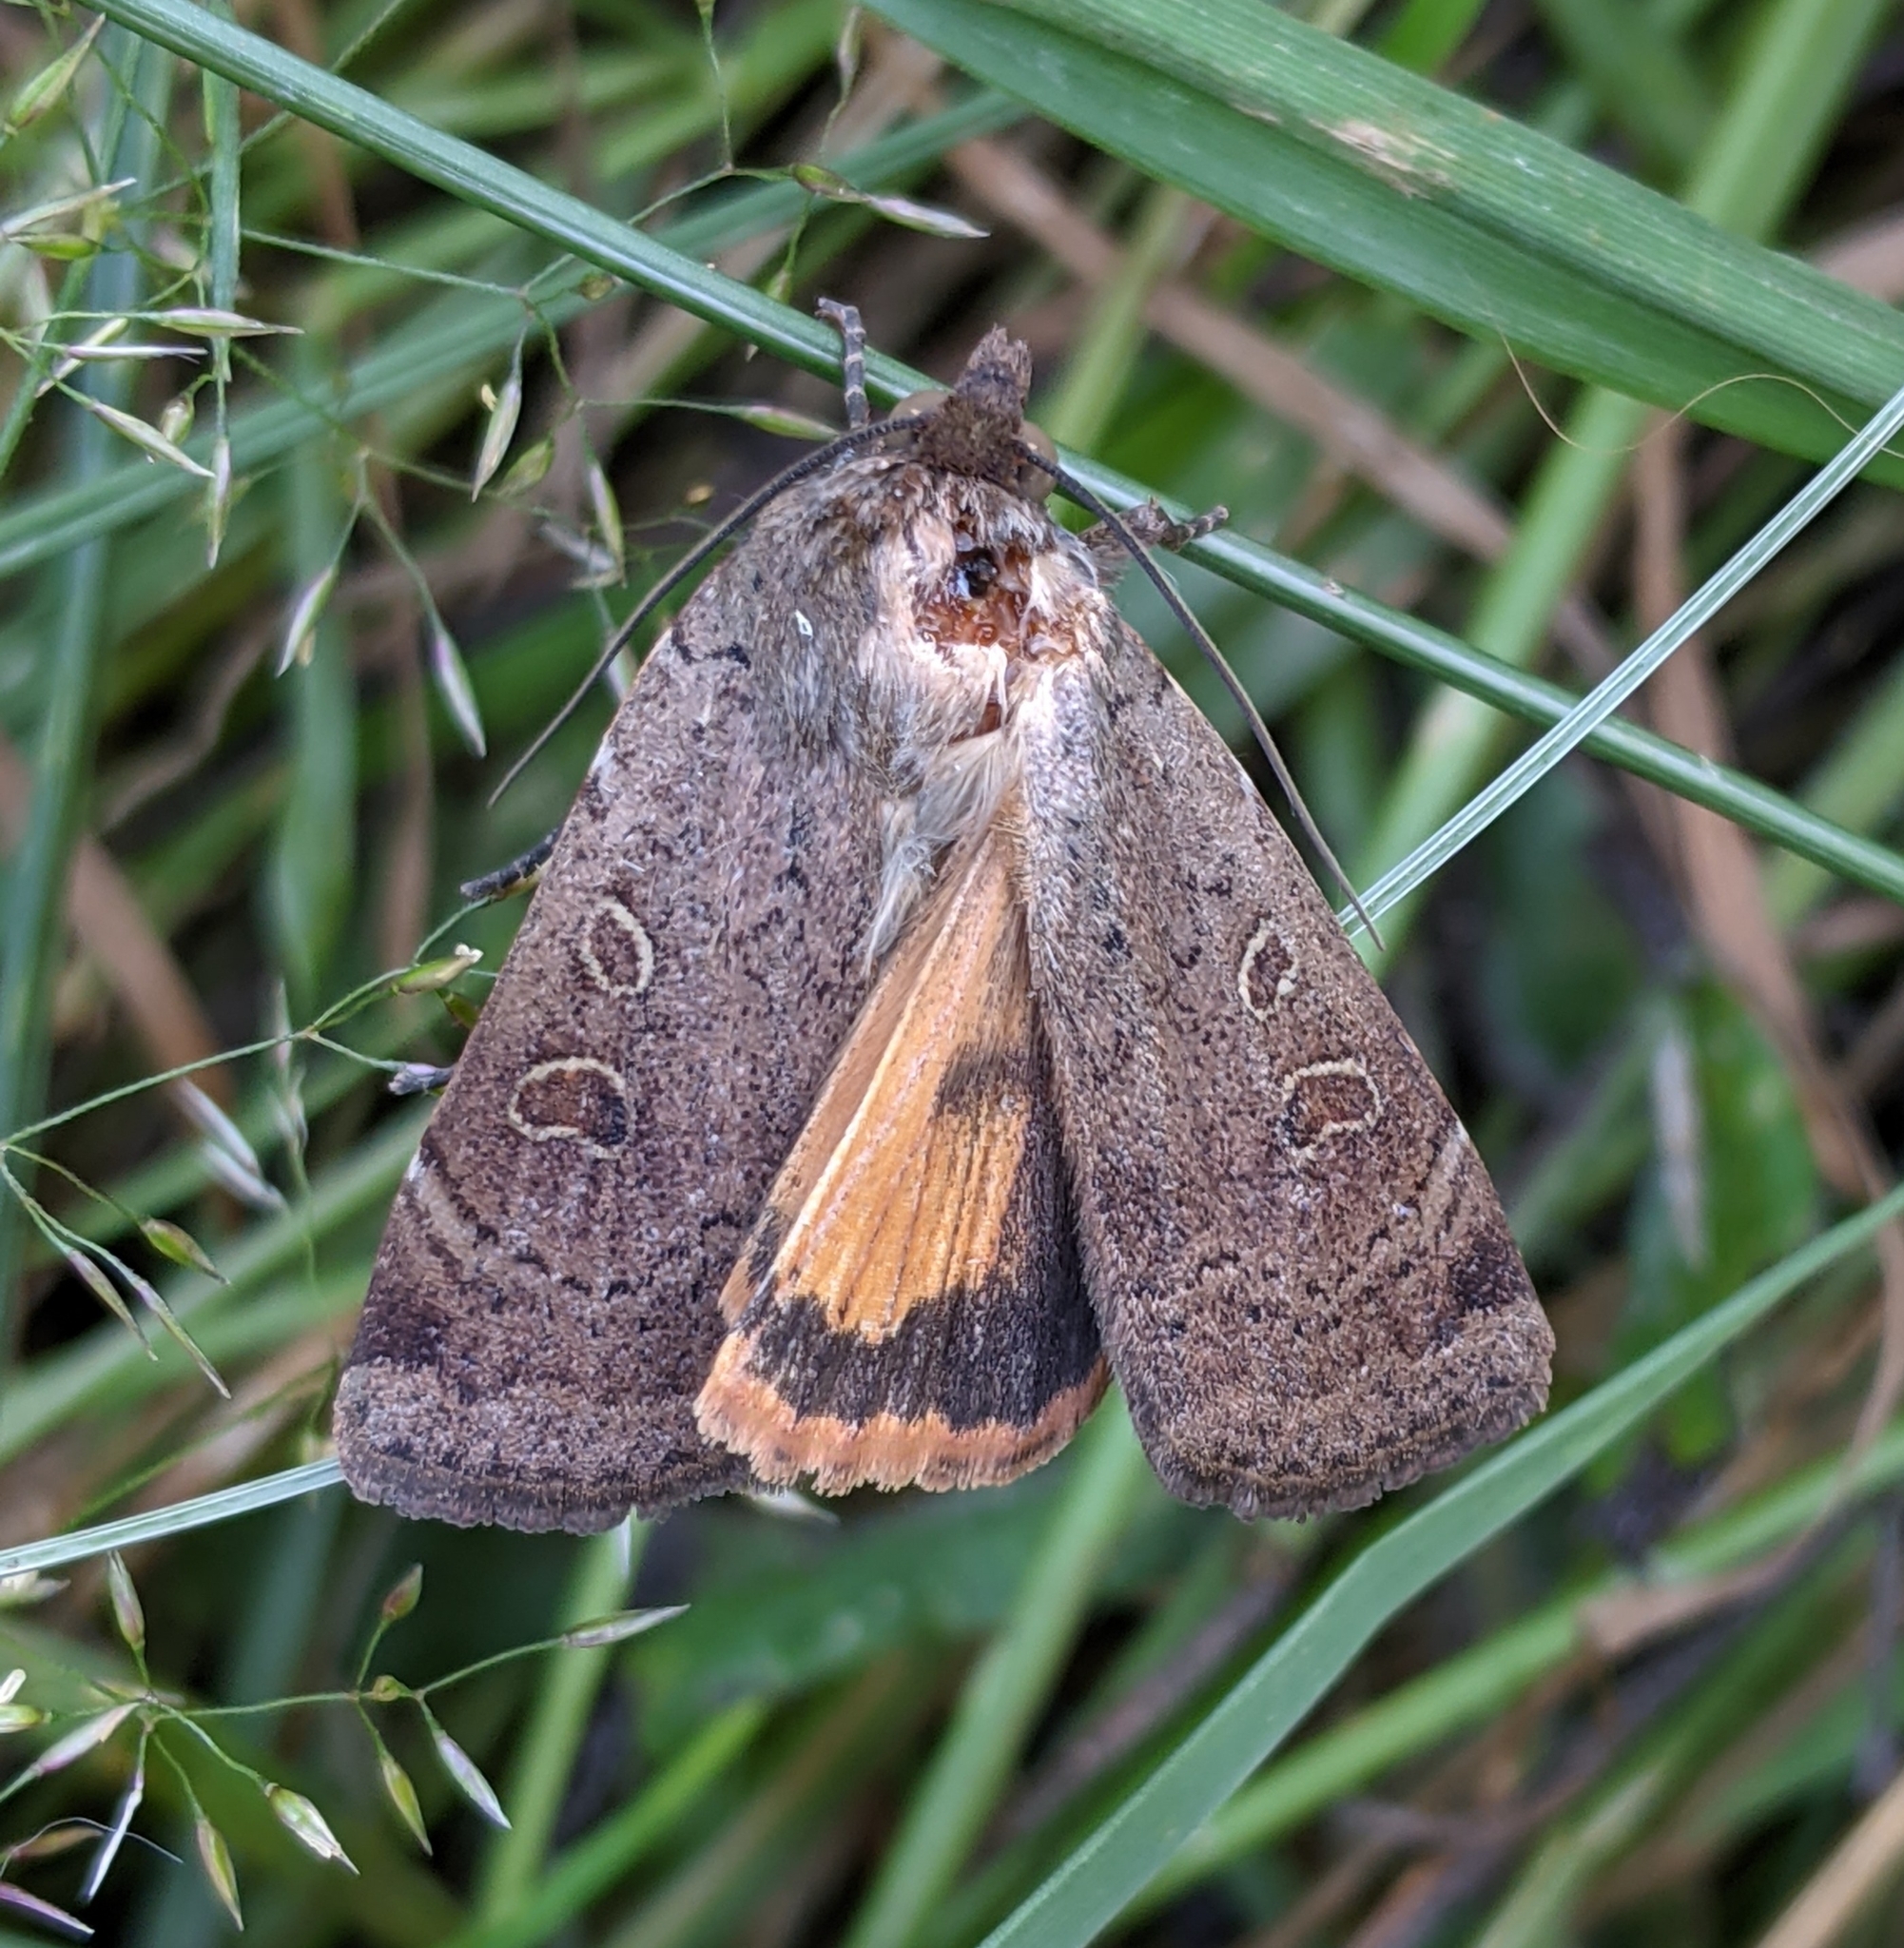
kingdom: Animalia
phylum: Arthropoda
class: Insecta
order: Lepidoptera
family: Noctuidae
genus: Noctua
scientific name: Noctua comes
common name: Lesser yellow underwing
